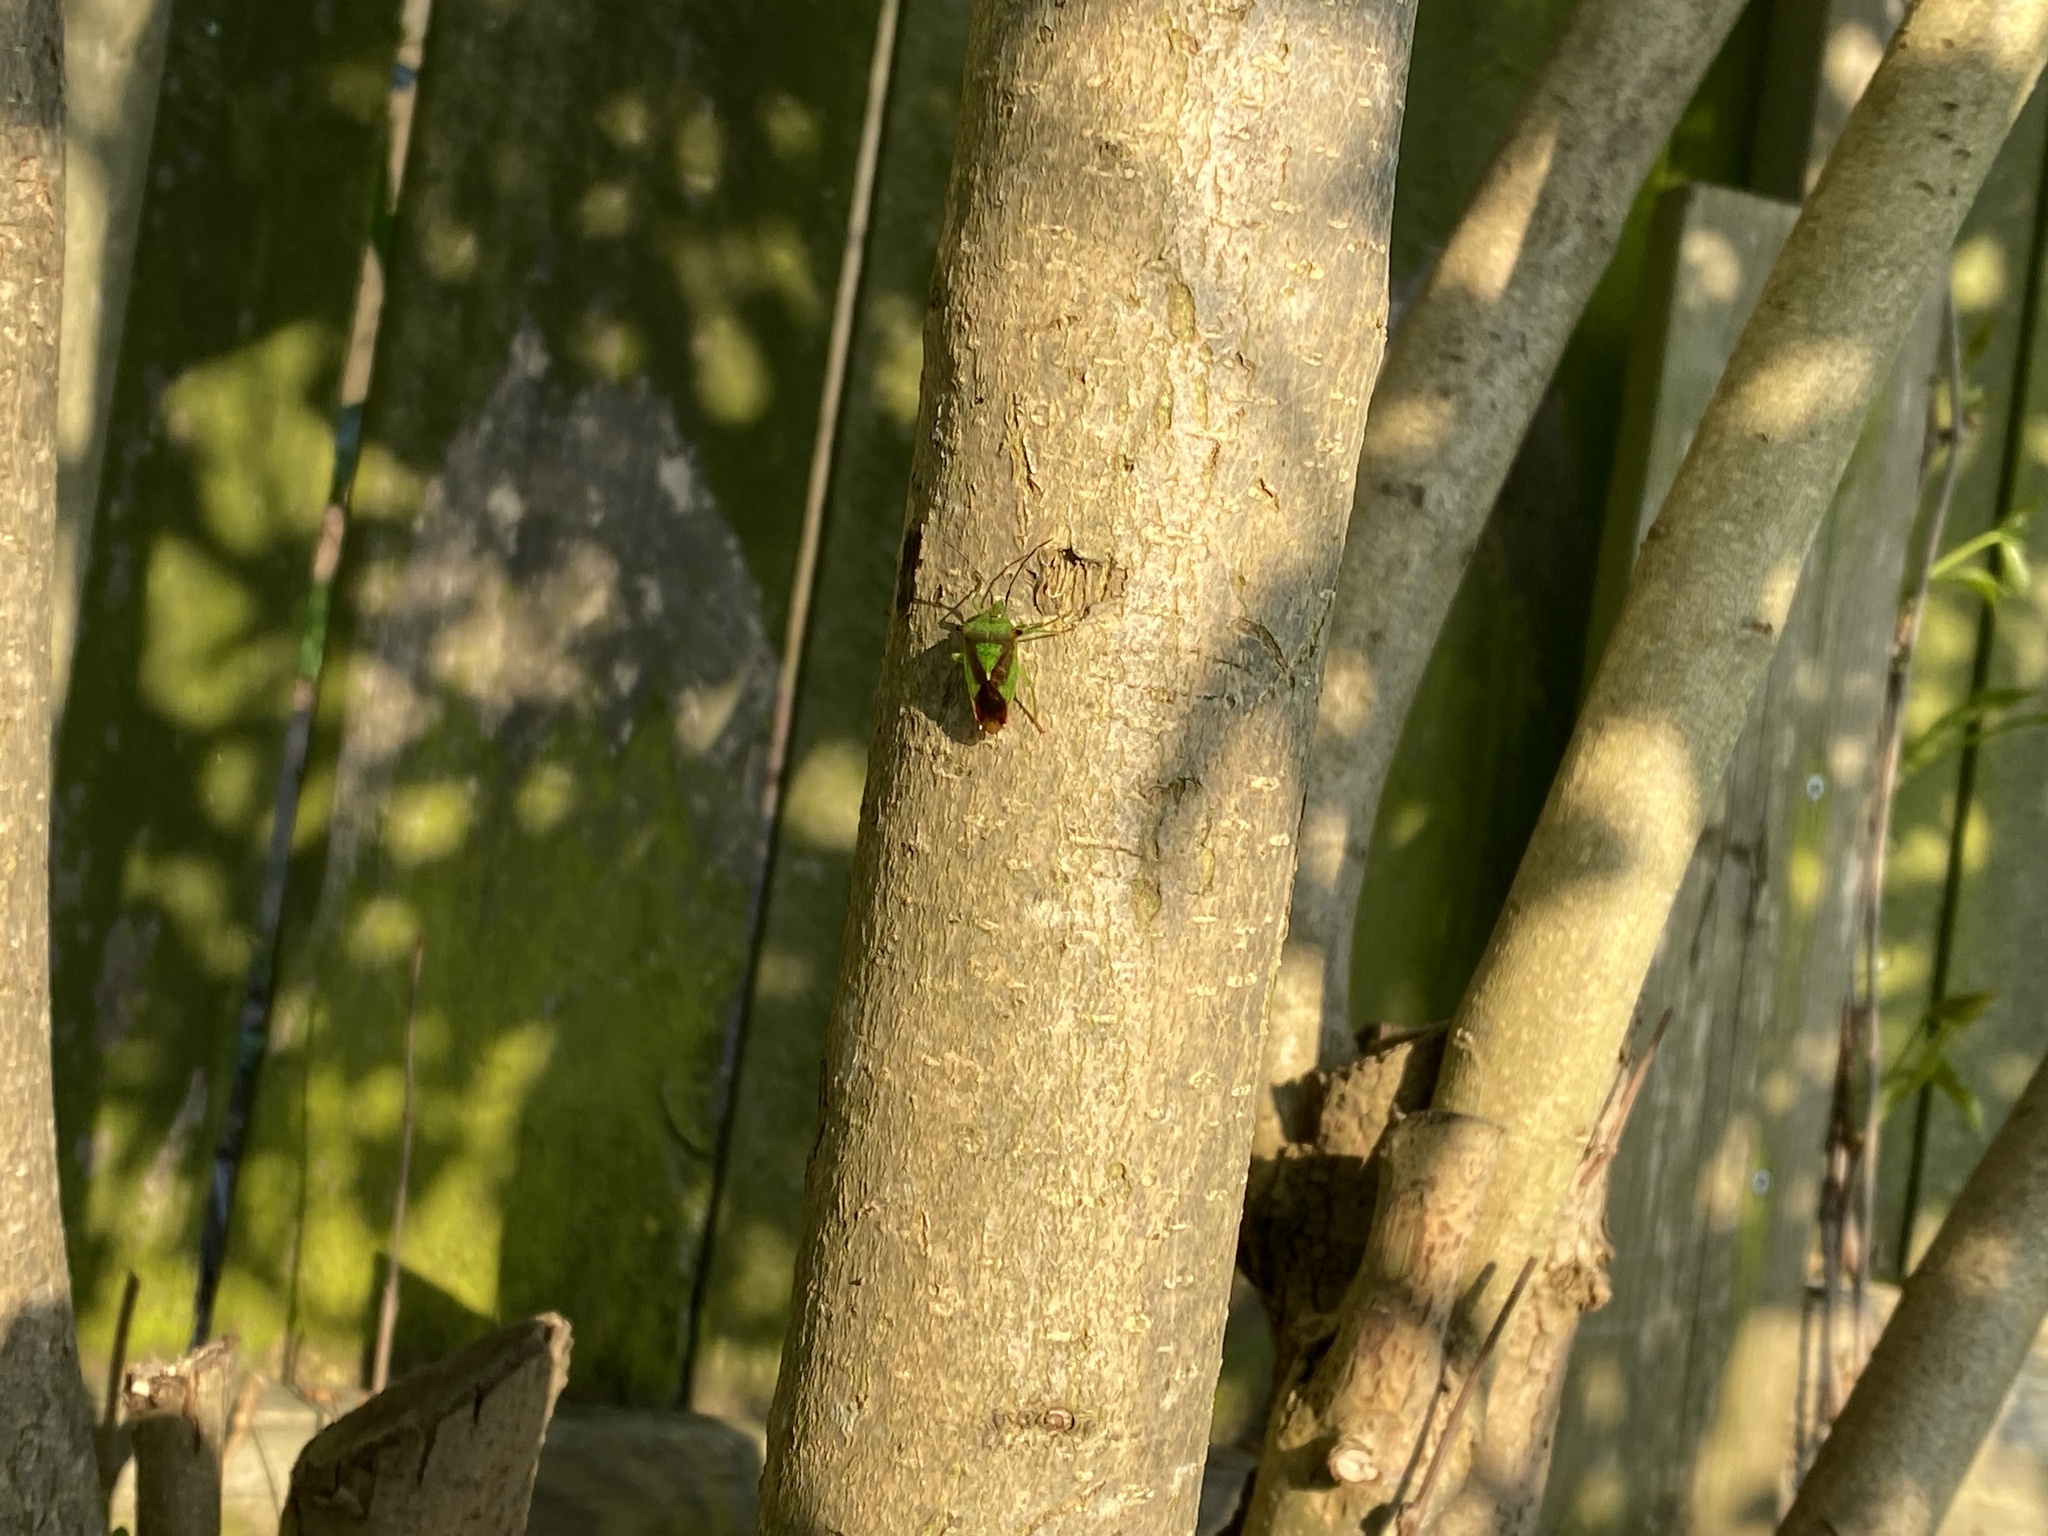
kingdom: Animalia
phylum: Arthropoda
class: Insecta
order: Hemiptera
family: Acanthosomatidae
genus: Acanthosoma
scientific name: Acanthosoma haemorrhoidale
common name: Hawthorn shieldbug
